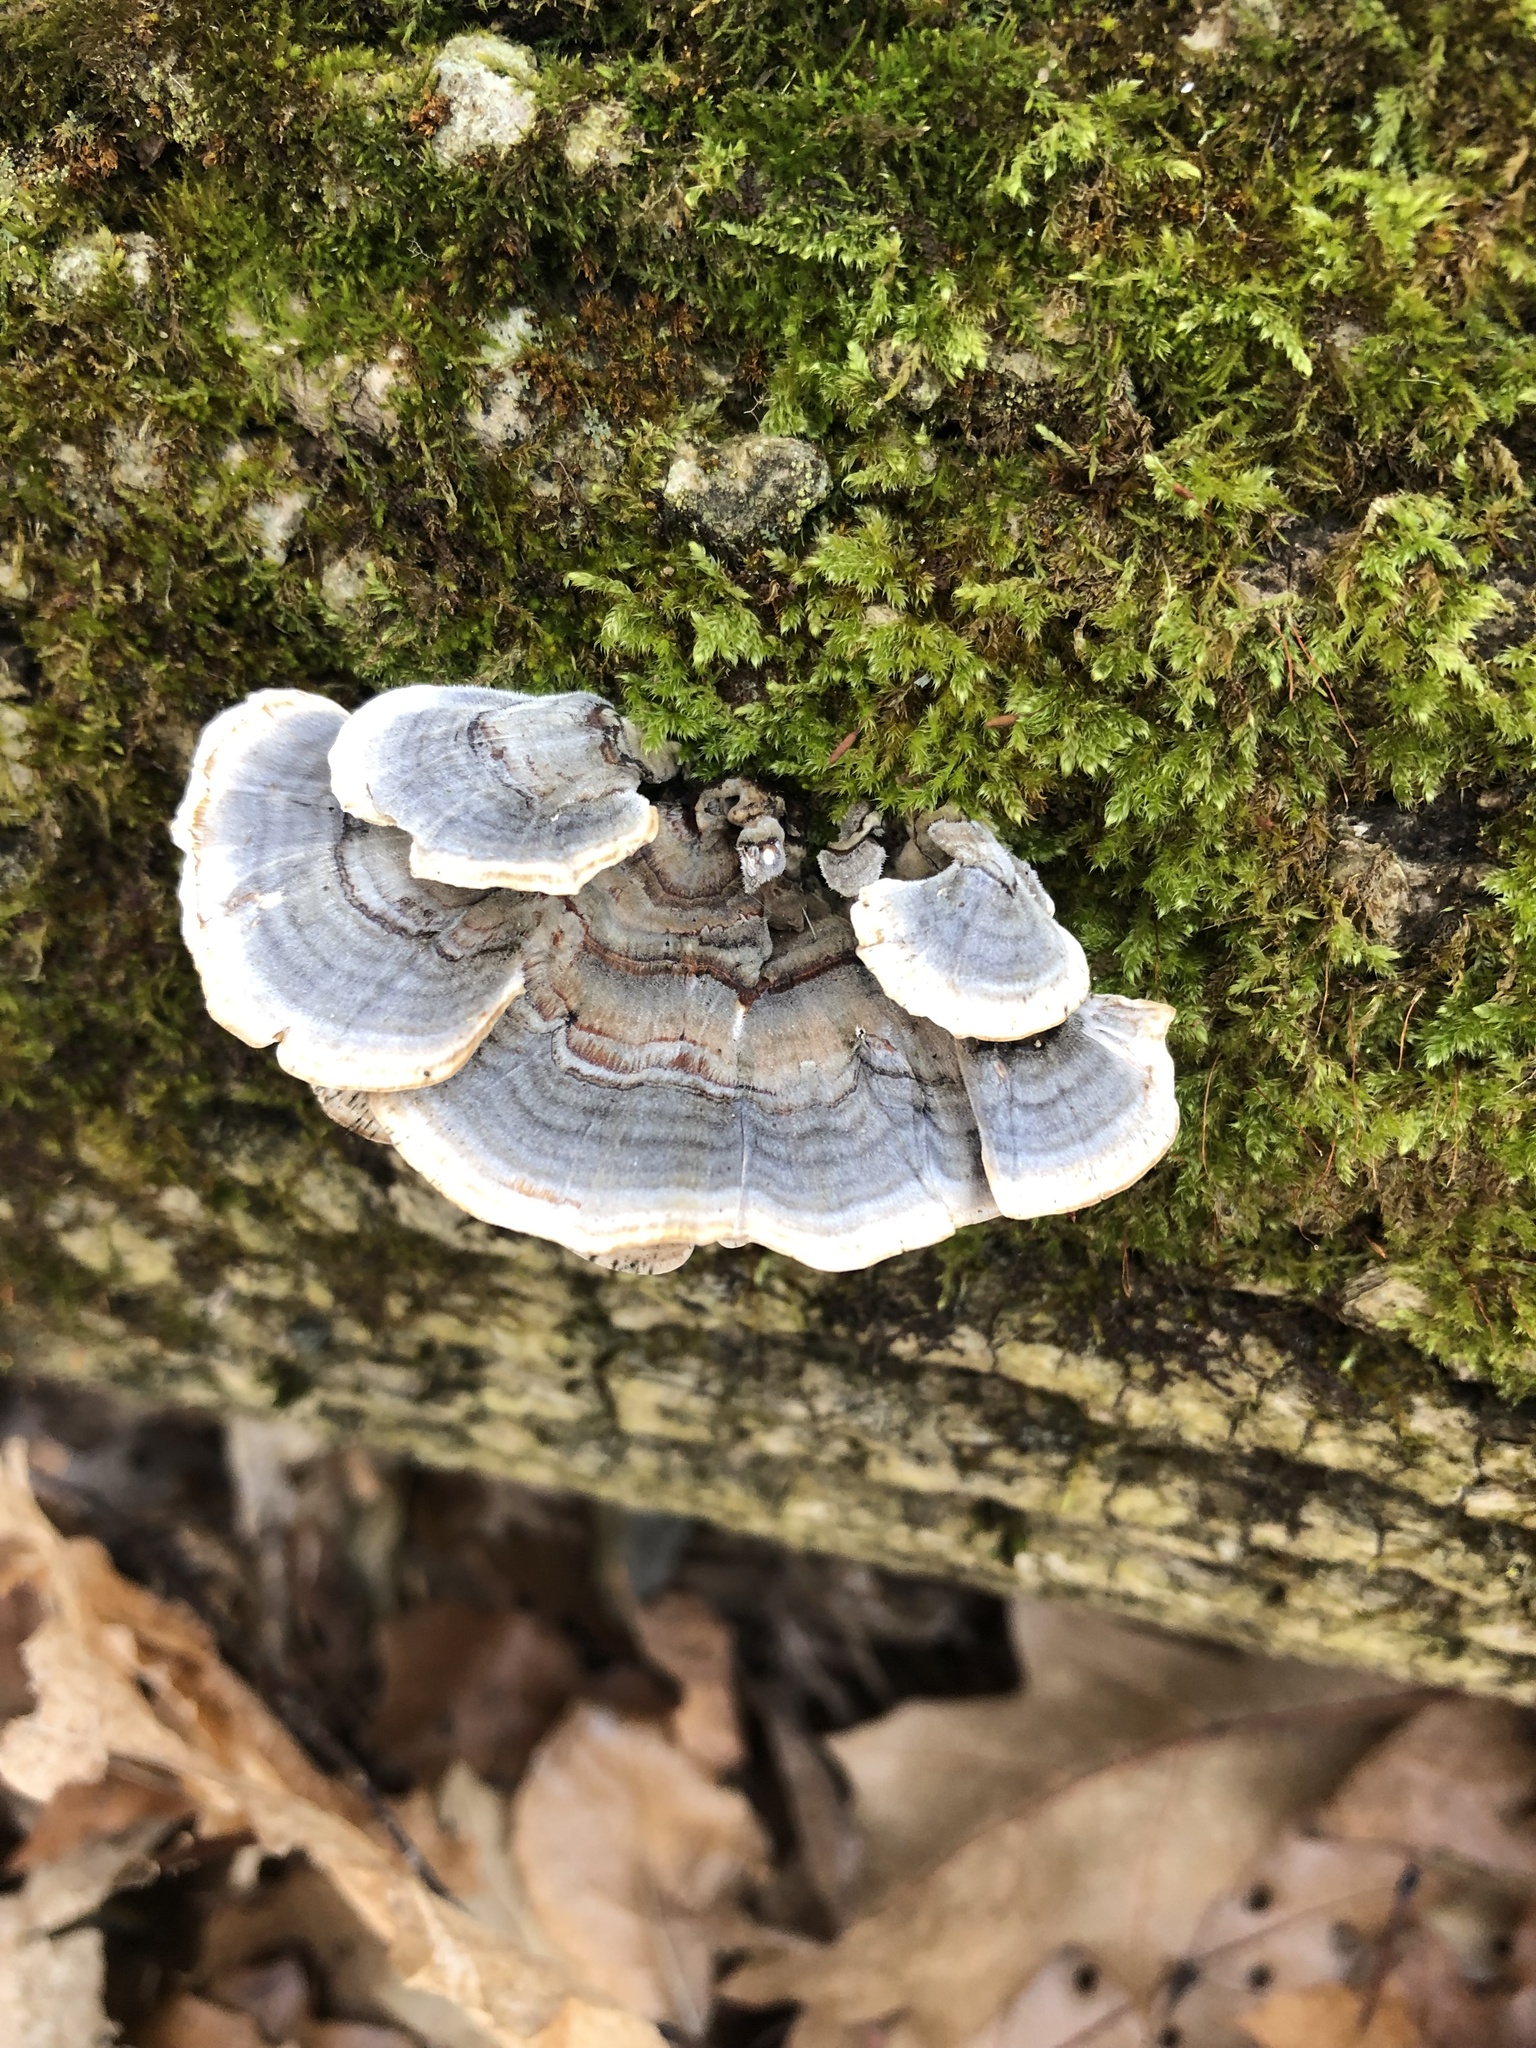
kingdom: Fungi
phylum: Basidiomycota
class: Agaricomycetes
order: Polyporales
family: Polyporaceae
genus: Trametes
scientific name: Trametes versicolor
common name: Turkeytail
